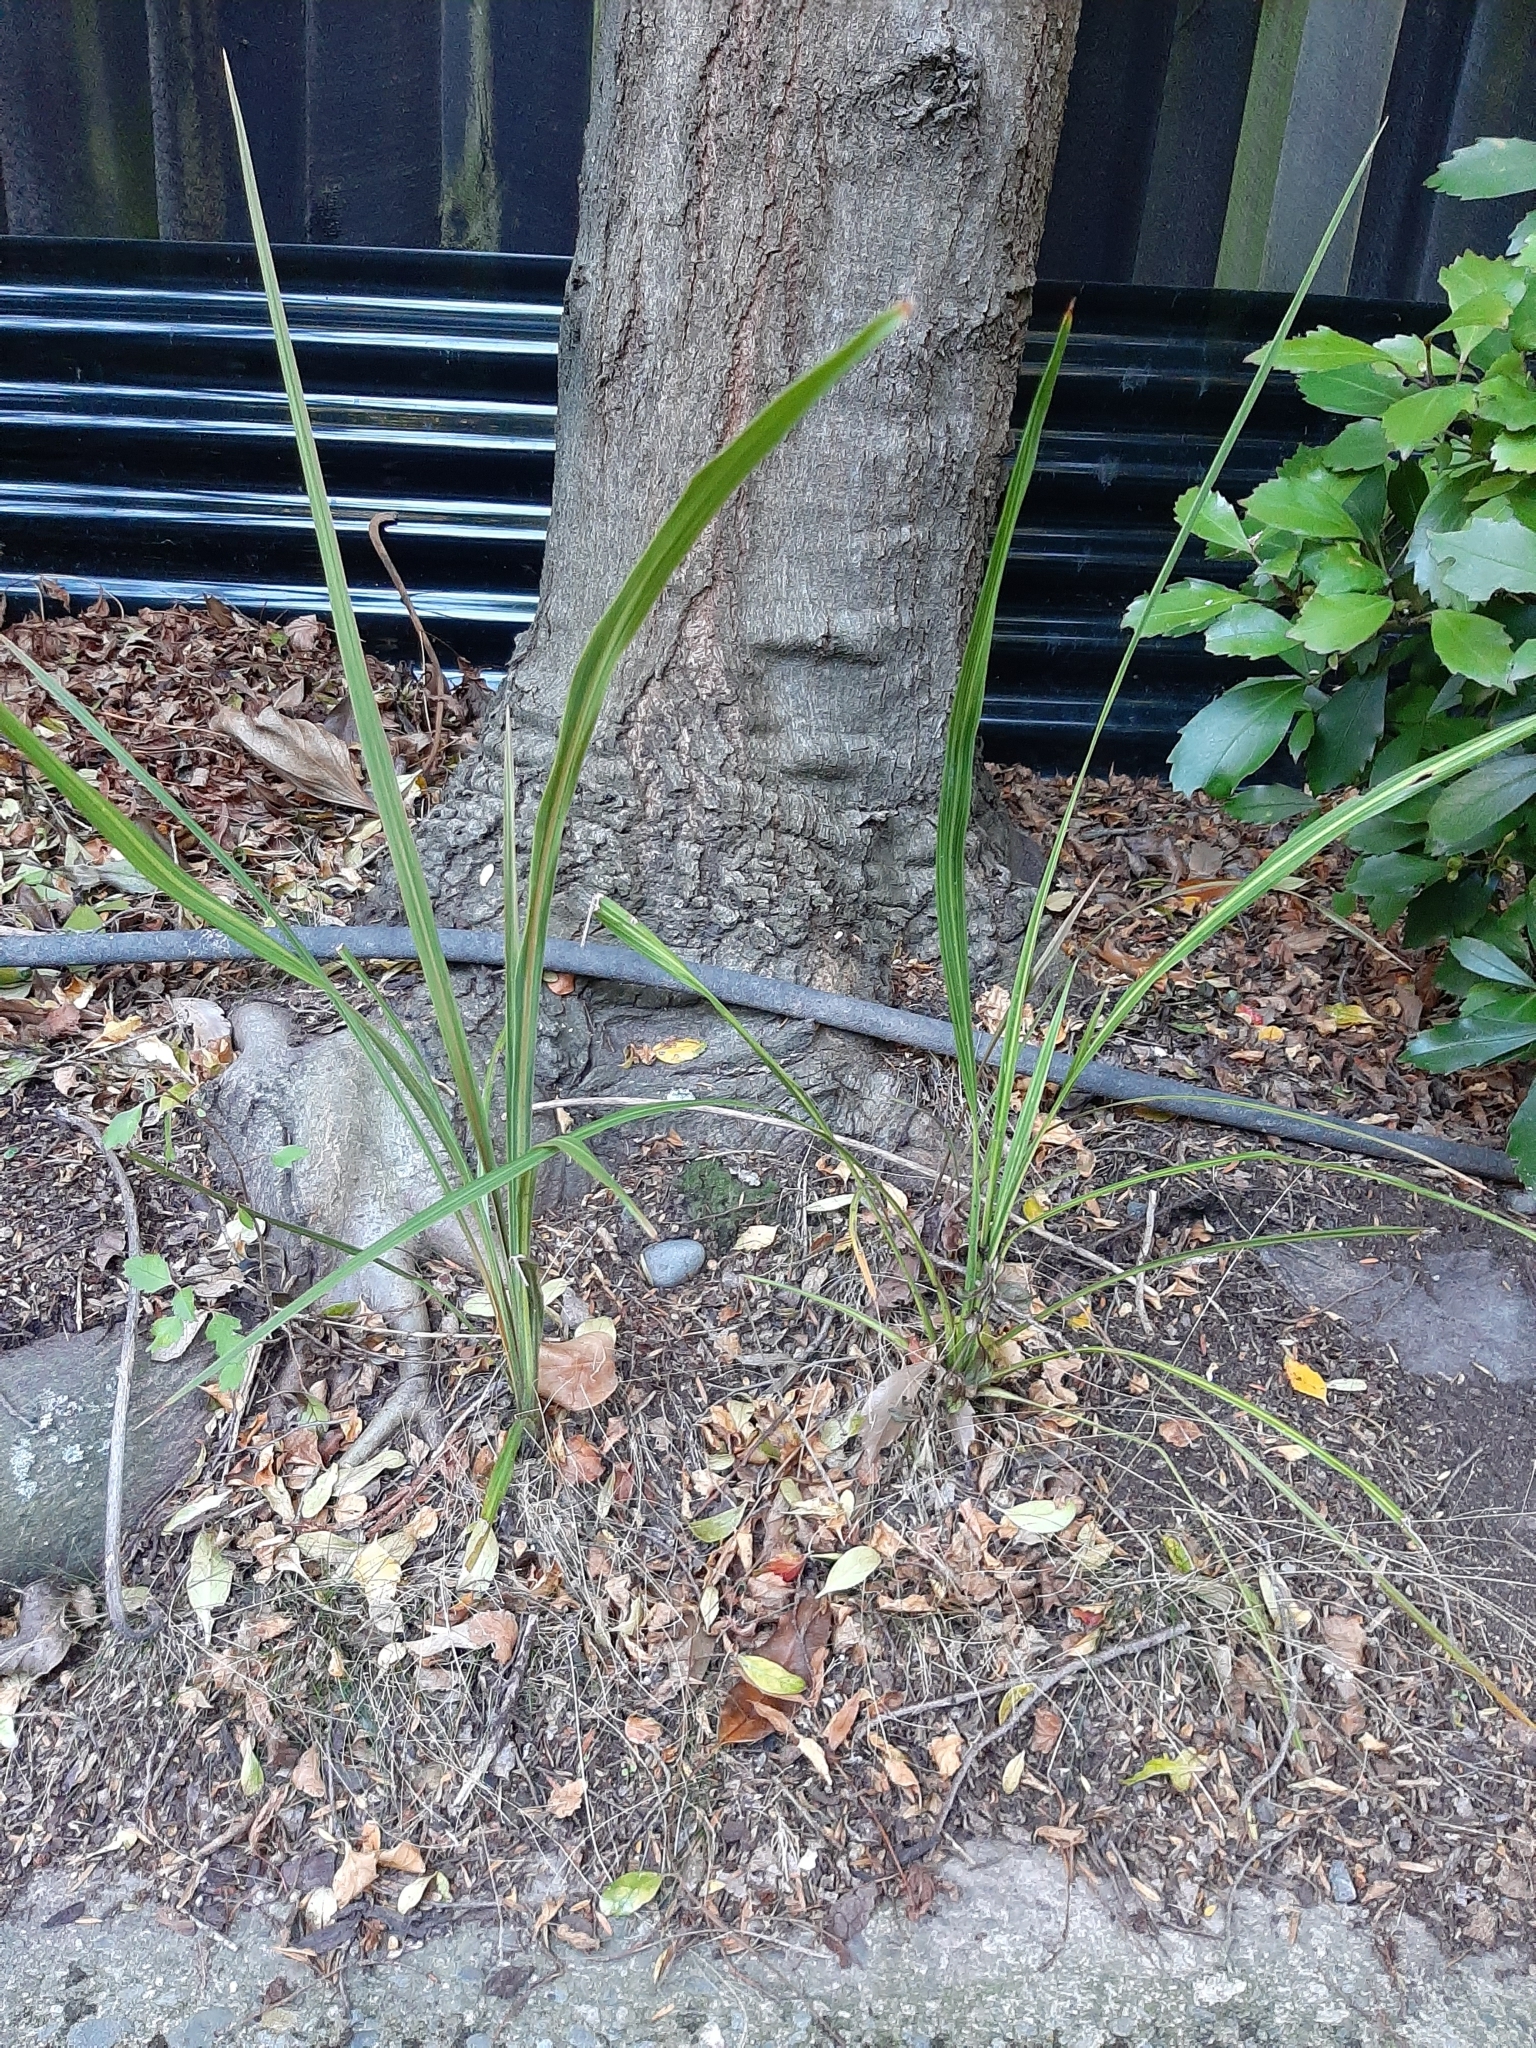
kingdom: Plantae
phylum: Tracheophyta
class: Liliopsida
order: Asparagales
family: Asparagaceae
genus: Cordyline
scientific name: Cordyline australis
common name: Cabbage-palm
